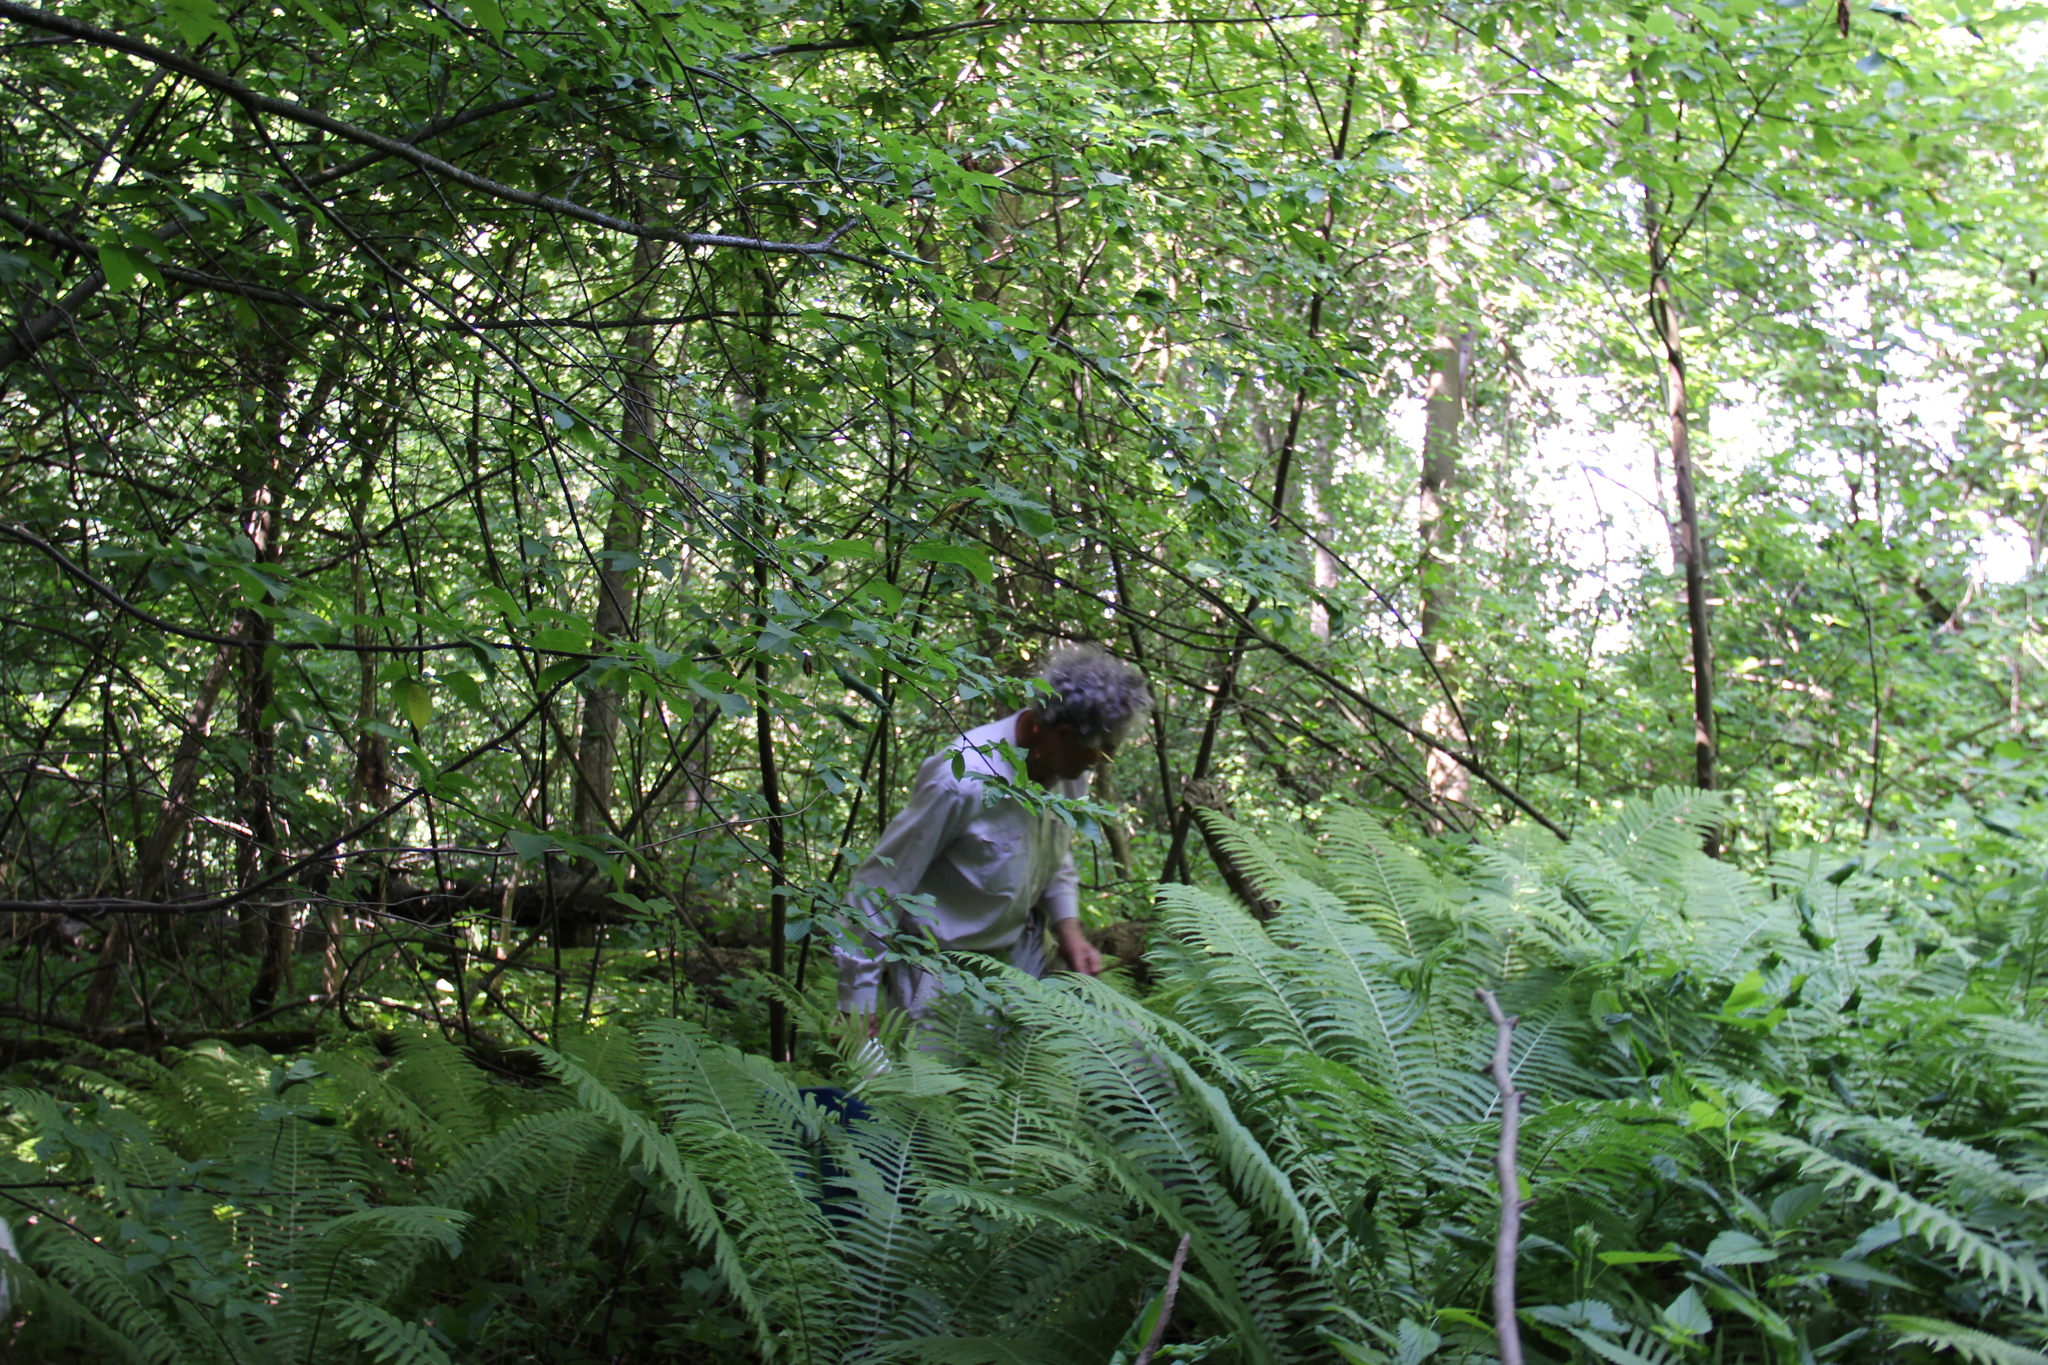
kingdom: Plantae
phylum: Tracheophyta
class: Polypodiopsida
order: Polypodiales
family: Onocleaceae
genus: Matteuccia
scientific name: Matteuccia struthiopteris
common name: Ostrich fern
